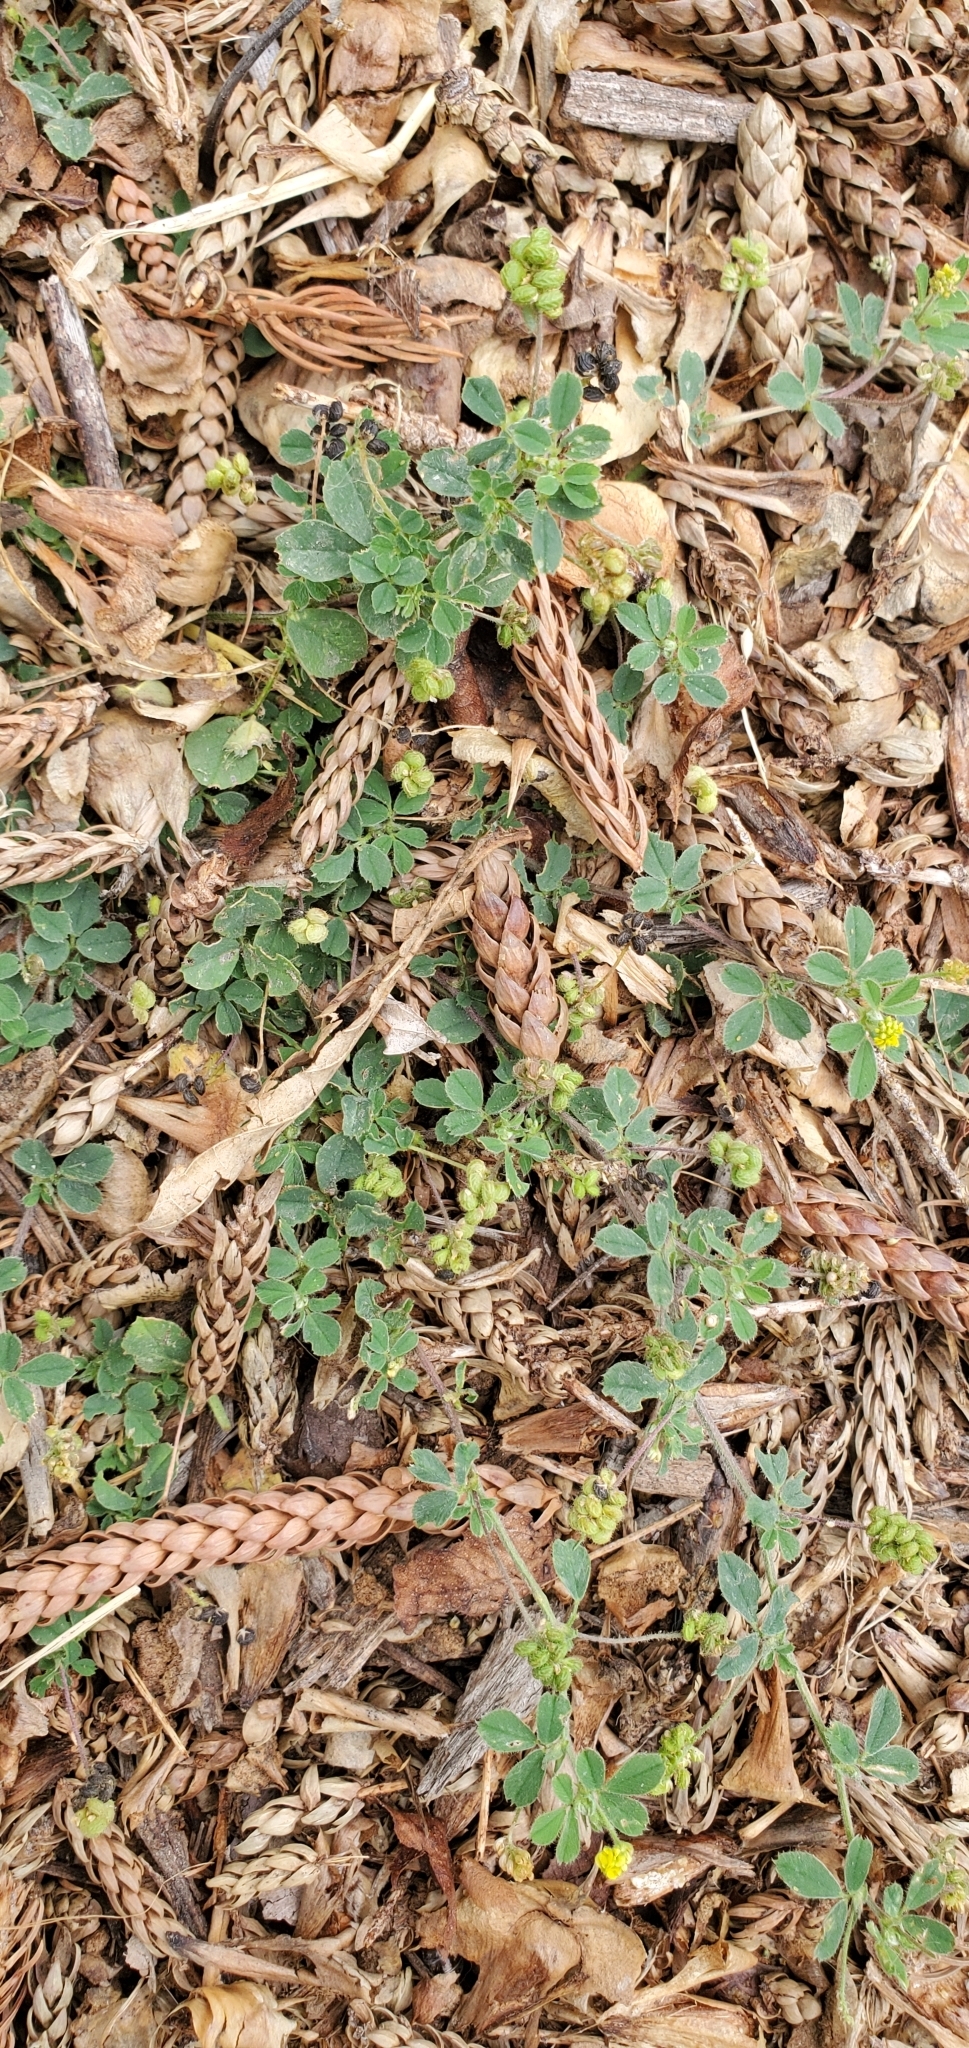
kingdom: Plantae
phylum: Tracheophyta
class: Magnoliopsida
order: Fabales
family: Fabaceae
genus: Medicago
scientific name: Medicago lupulina
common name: Black medick
